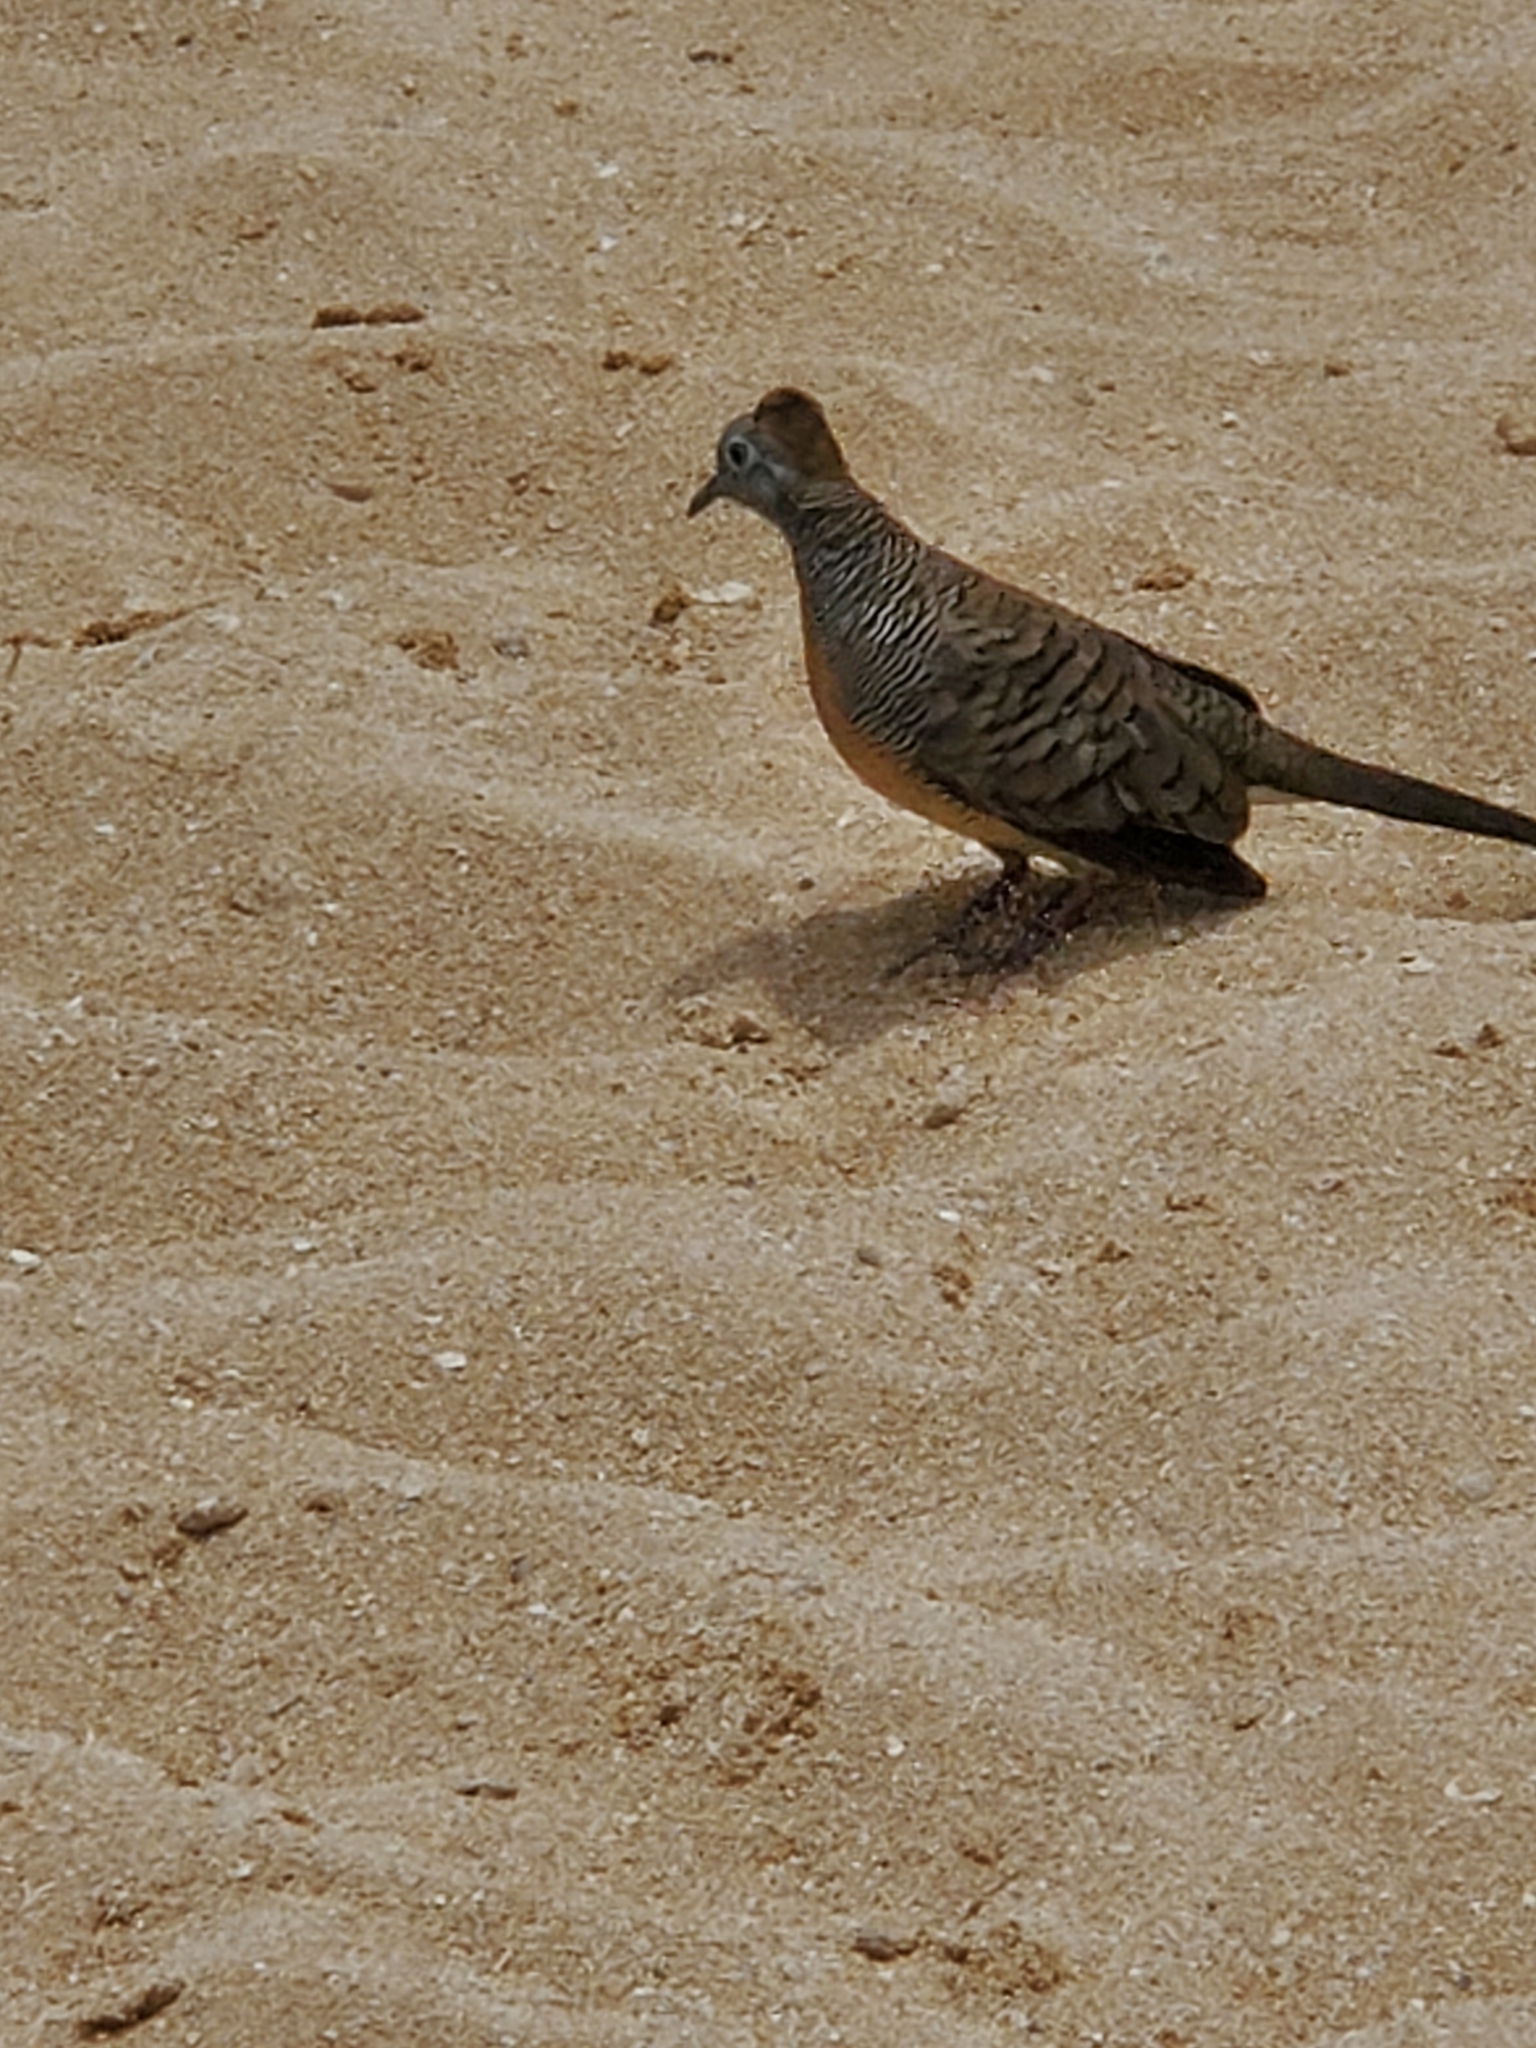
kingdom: Animalia
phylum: Chordata
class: Aves
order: Columbiformes
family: Columbidae
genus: Geopelia
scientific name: Geopelia striata
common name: Zebra dove
